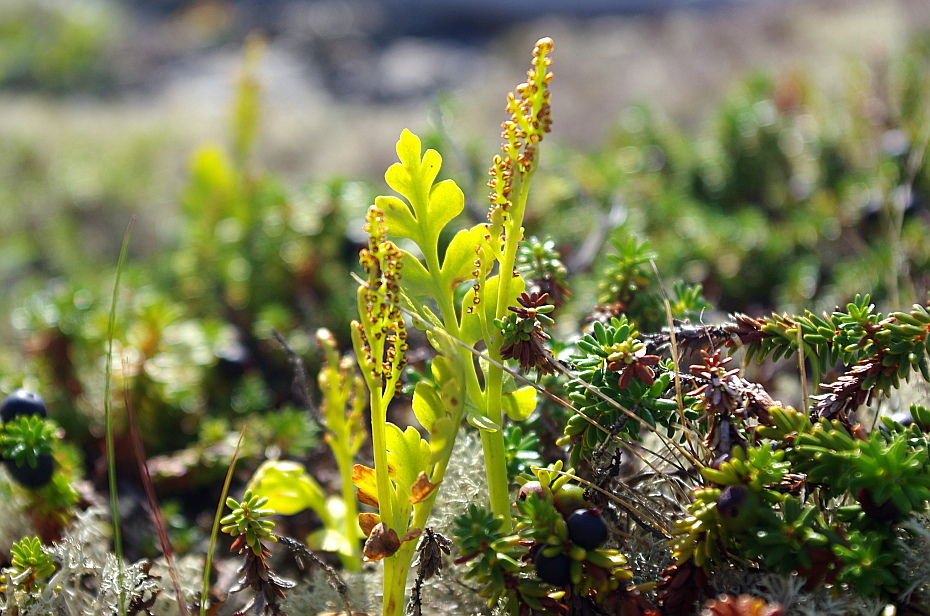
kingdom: Plantae
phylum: Tracheophyta
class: Polypodiopsida
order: Ophioglossales
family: Ophioglossaceae
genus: Botrychium
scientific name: Botrychium boreale
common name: Boreal moonwort
